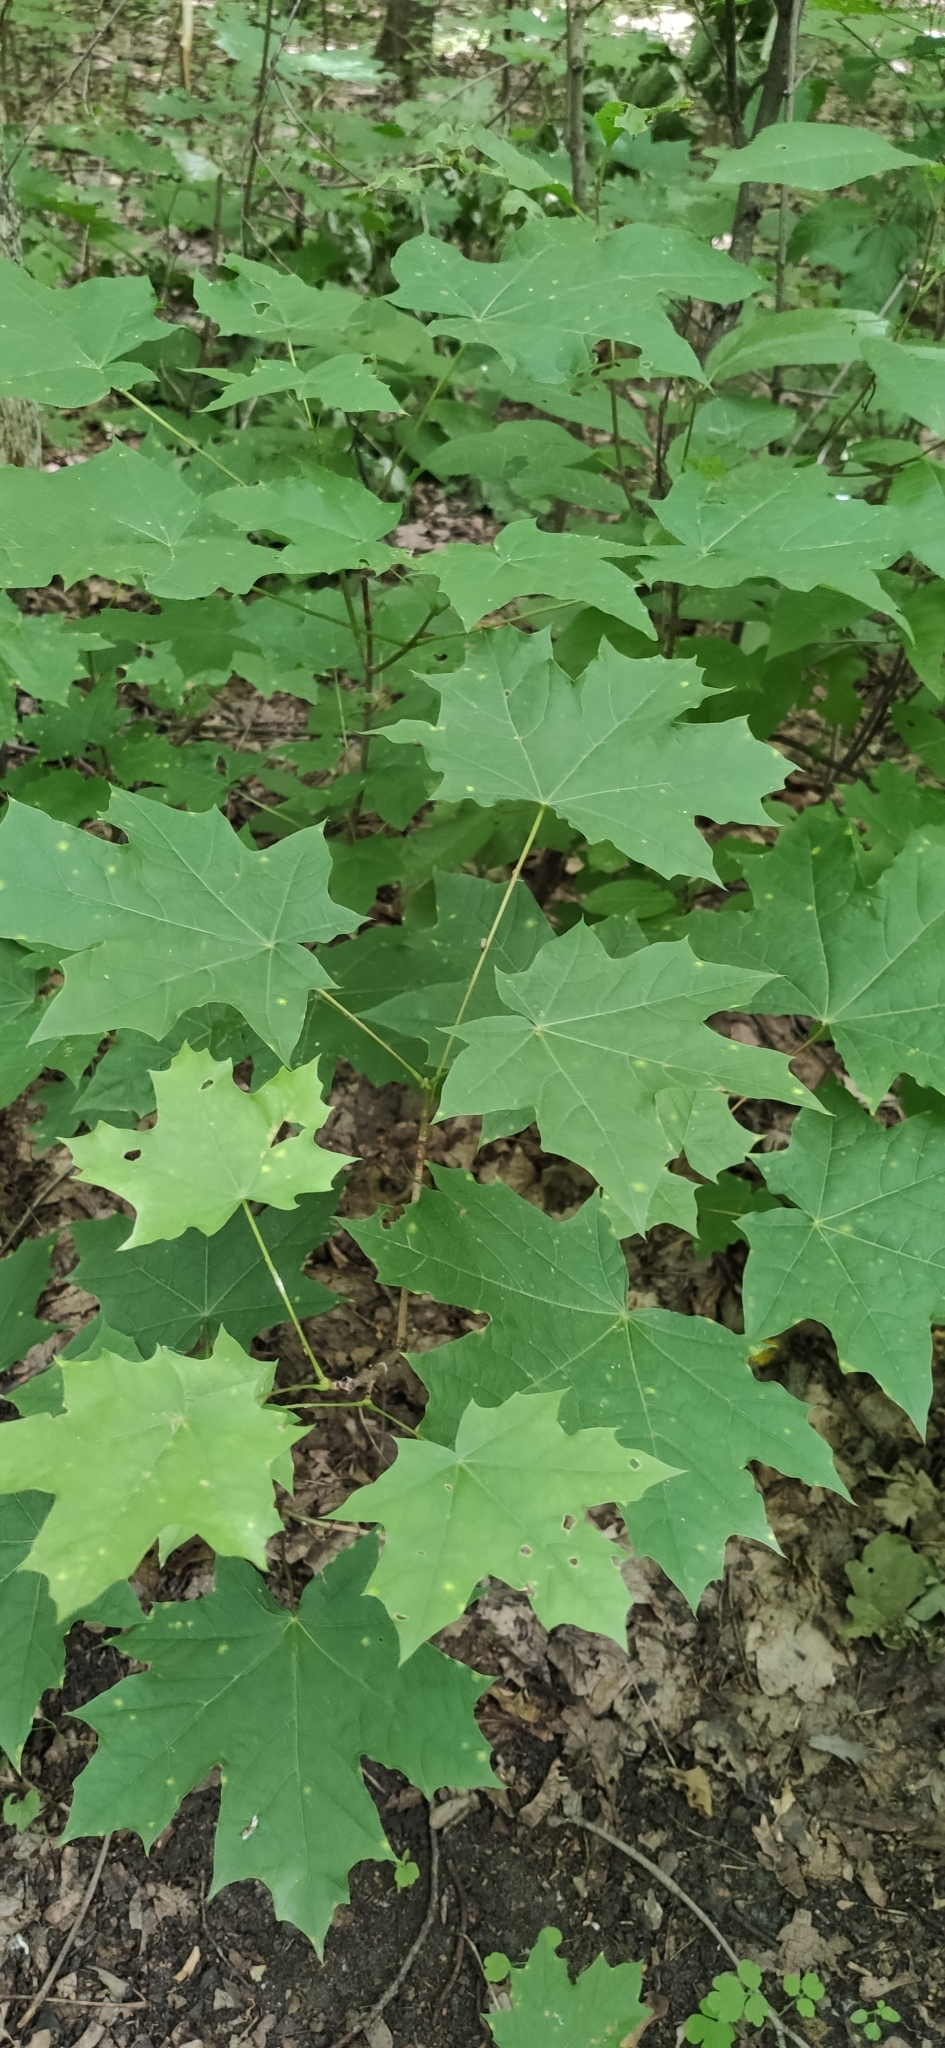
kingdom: Plantae
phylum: Tracheophyta
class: Magnoliopsida
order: Sapindales
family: Sapindaceae
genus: Acer
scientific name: Acer platanoides
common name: Norway maple
